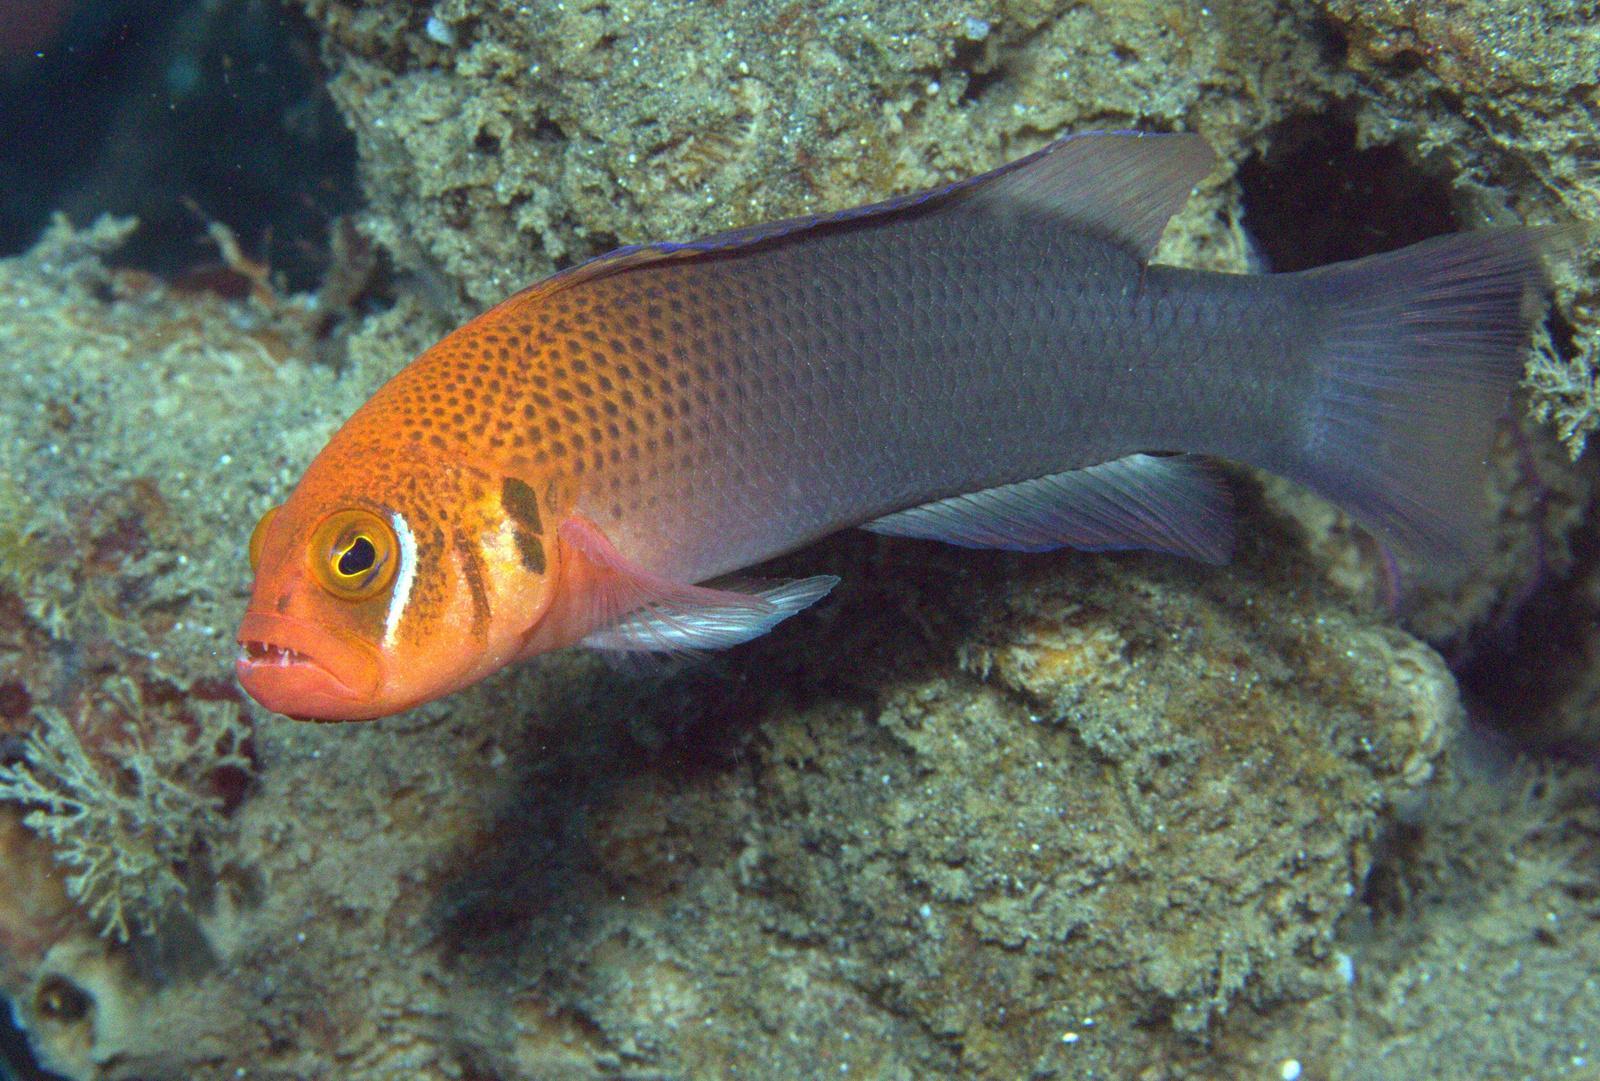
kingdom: Animalia
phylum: Chordata
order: Perciformes
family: Pseudochromidae
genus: Pseudochromis
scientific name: Pseudochromis erdmanni
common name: Erdmann’s dottyback
